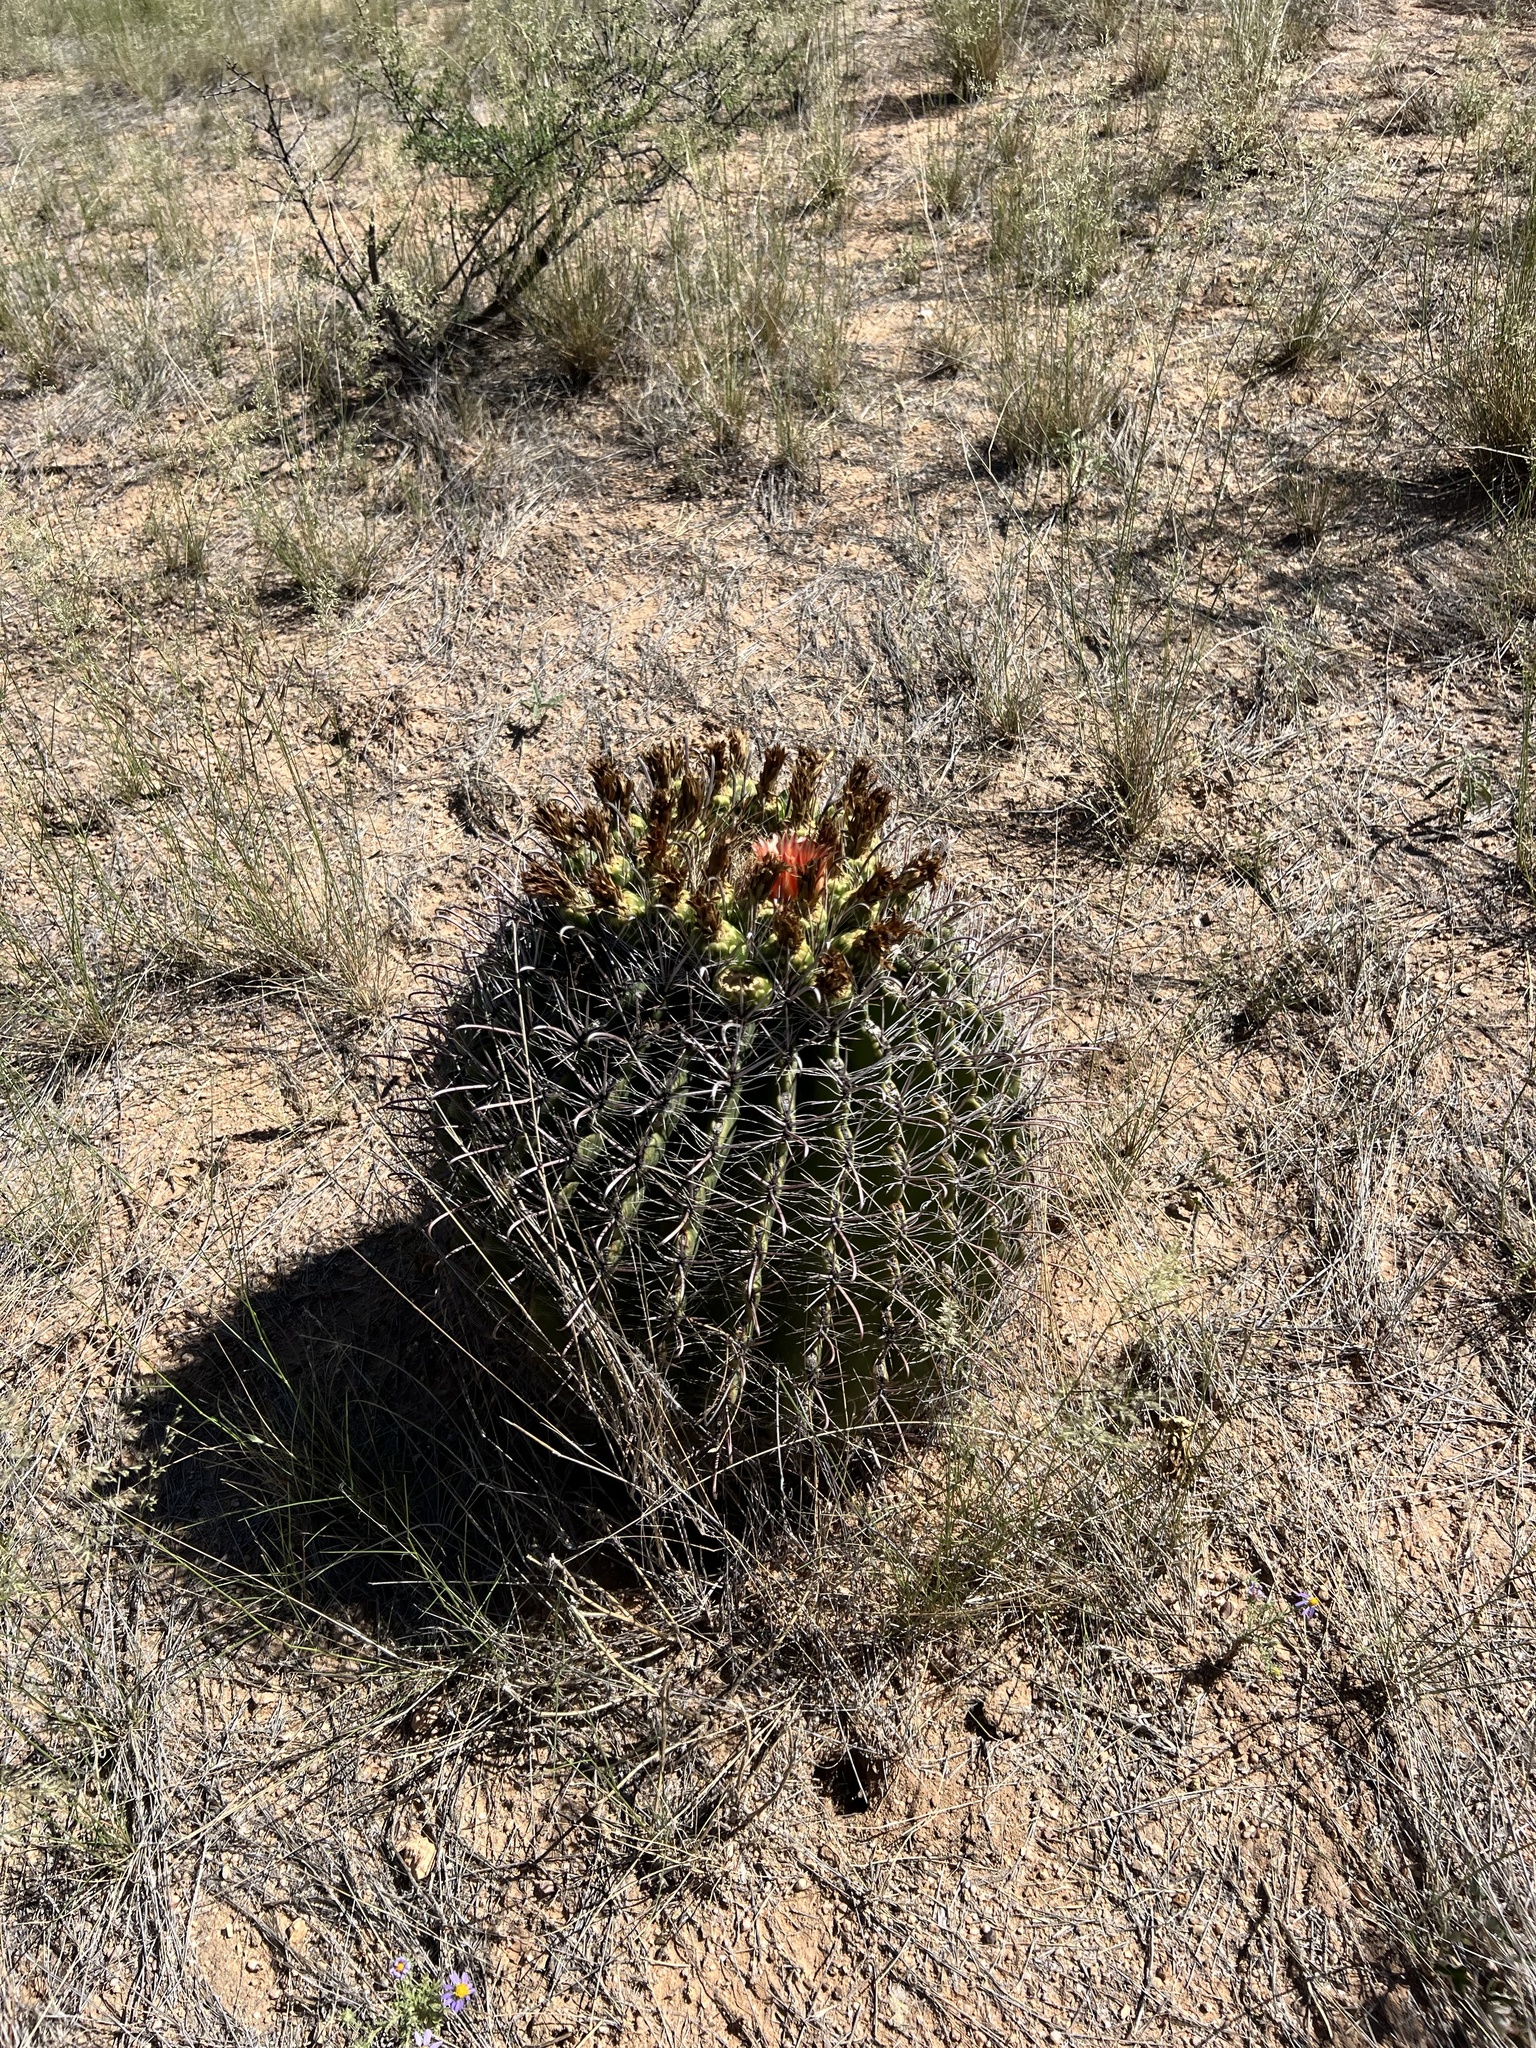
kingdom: Plantae
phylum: Tracheophyta
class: Magnoliopsida
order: Caryophyllales
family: Cactaceae
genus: Ferocactus
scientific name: Ferocactus wislizeni
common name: Candy barrel cactus
